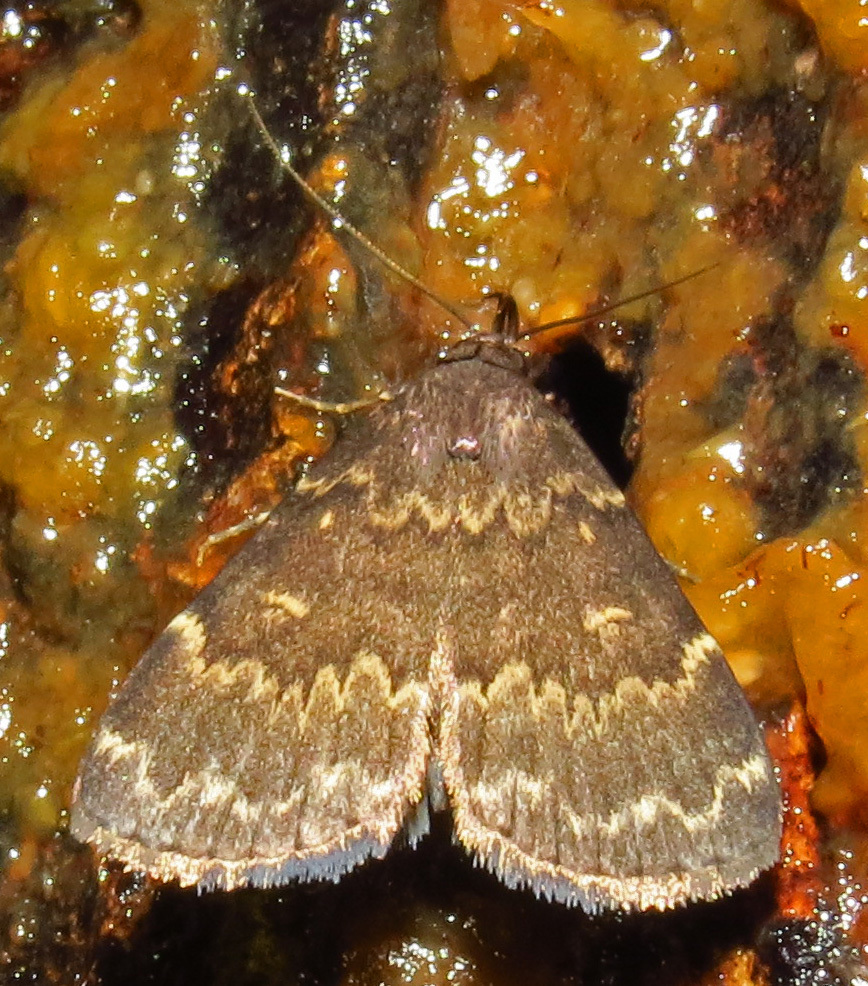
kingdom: Animalia
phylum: Arthropoda
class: Insecta
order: Lepidoptera
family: Erebidae
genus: Idia
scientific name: Idia lubricalis
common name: Twin-striped tabby
